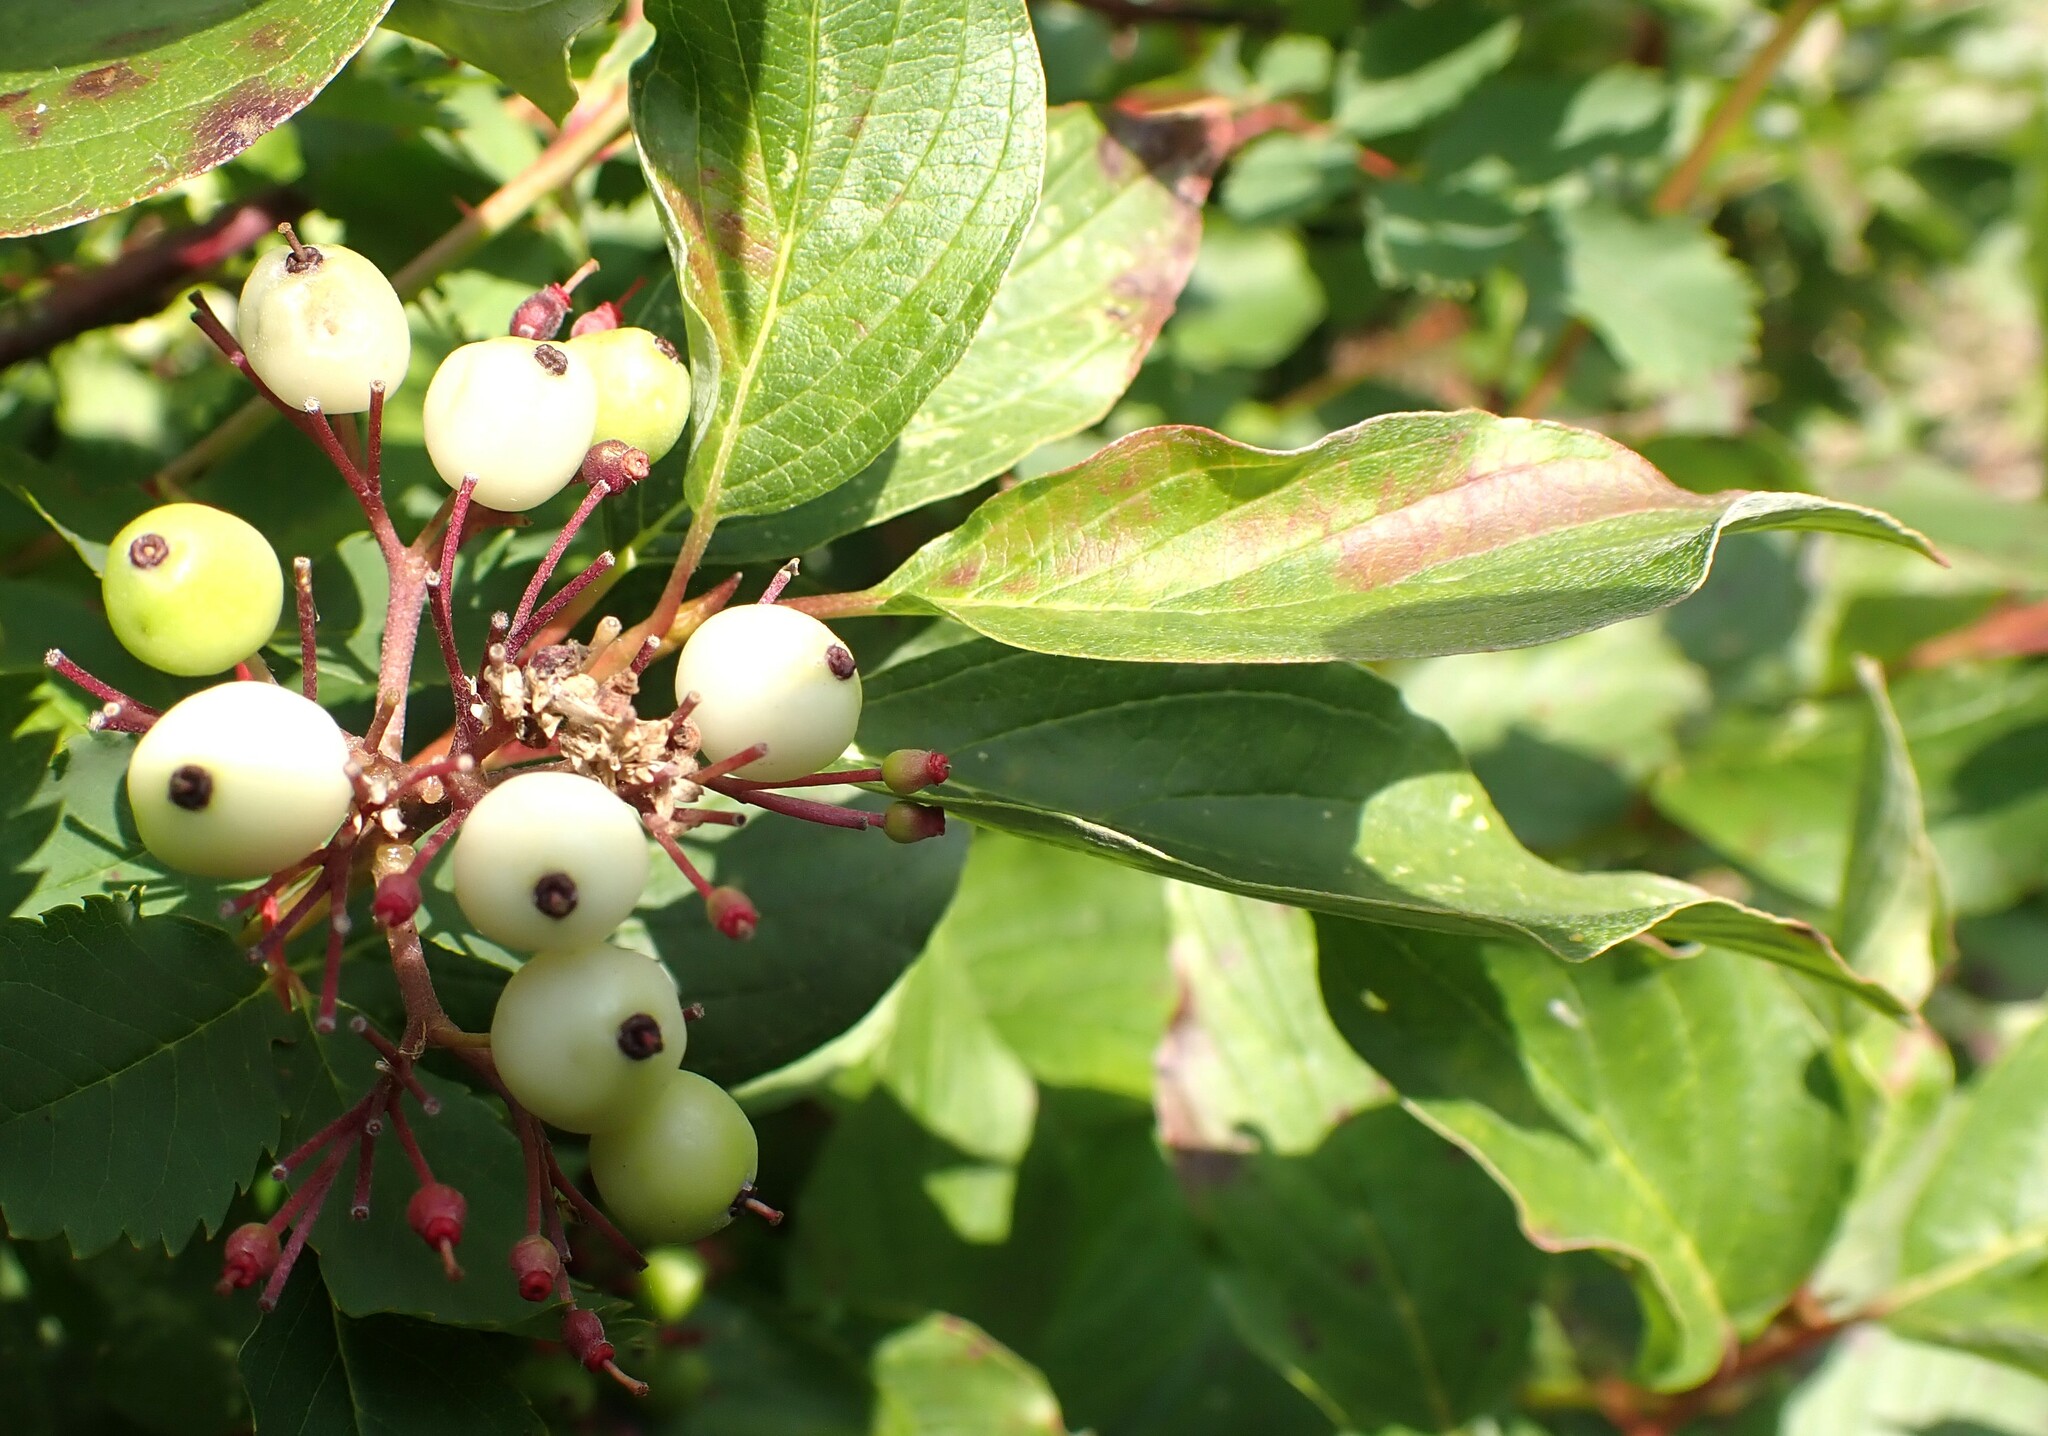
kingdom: Plantae
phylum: Tracheophyta
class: Magnoliopsida
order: Cornales
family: Cornaceae
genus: Cornus
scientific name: Cornus sericea
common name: Red-osier dogwood
